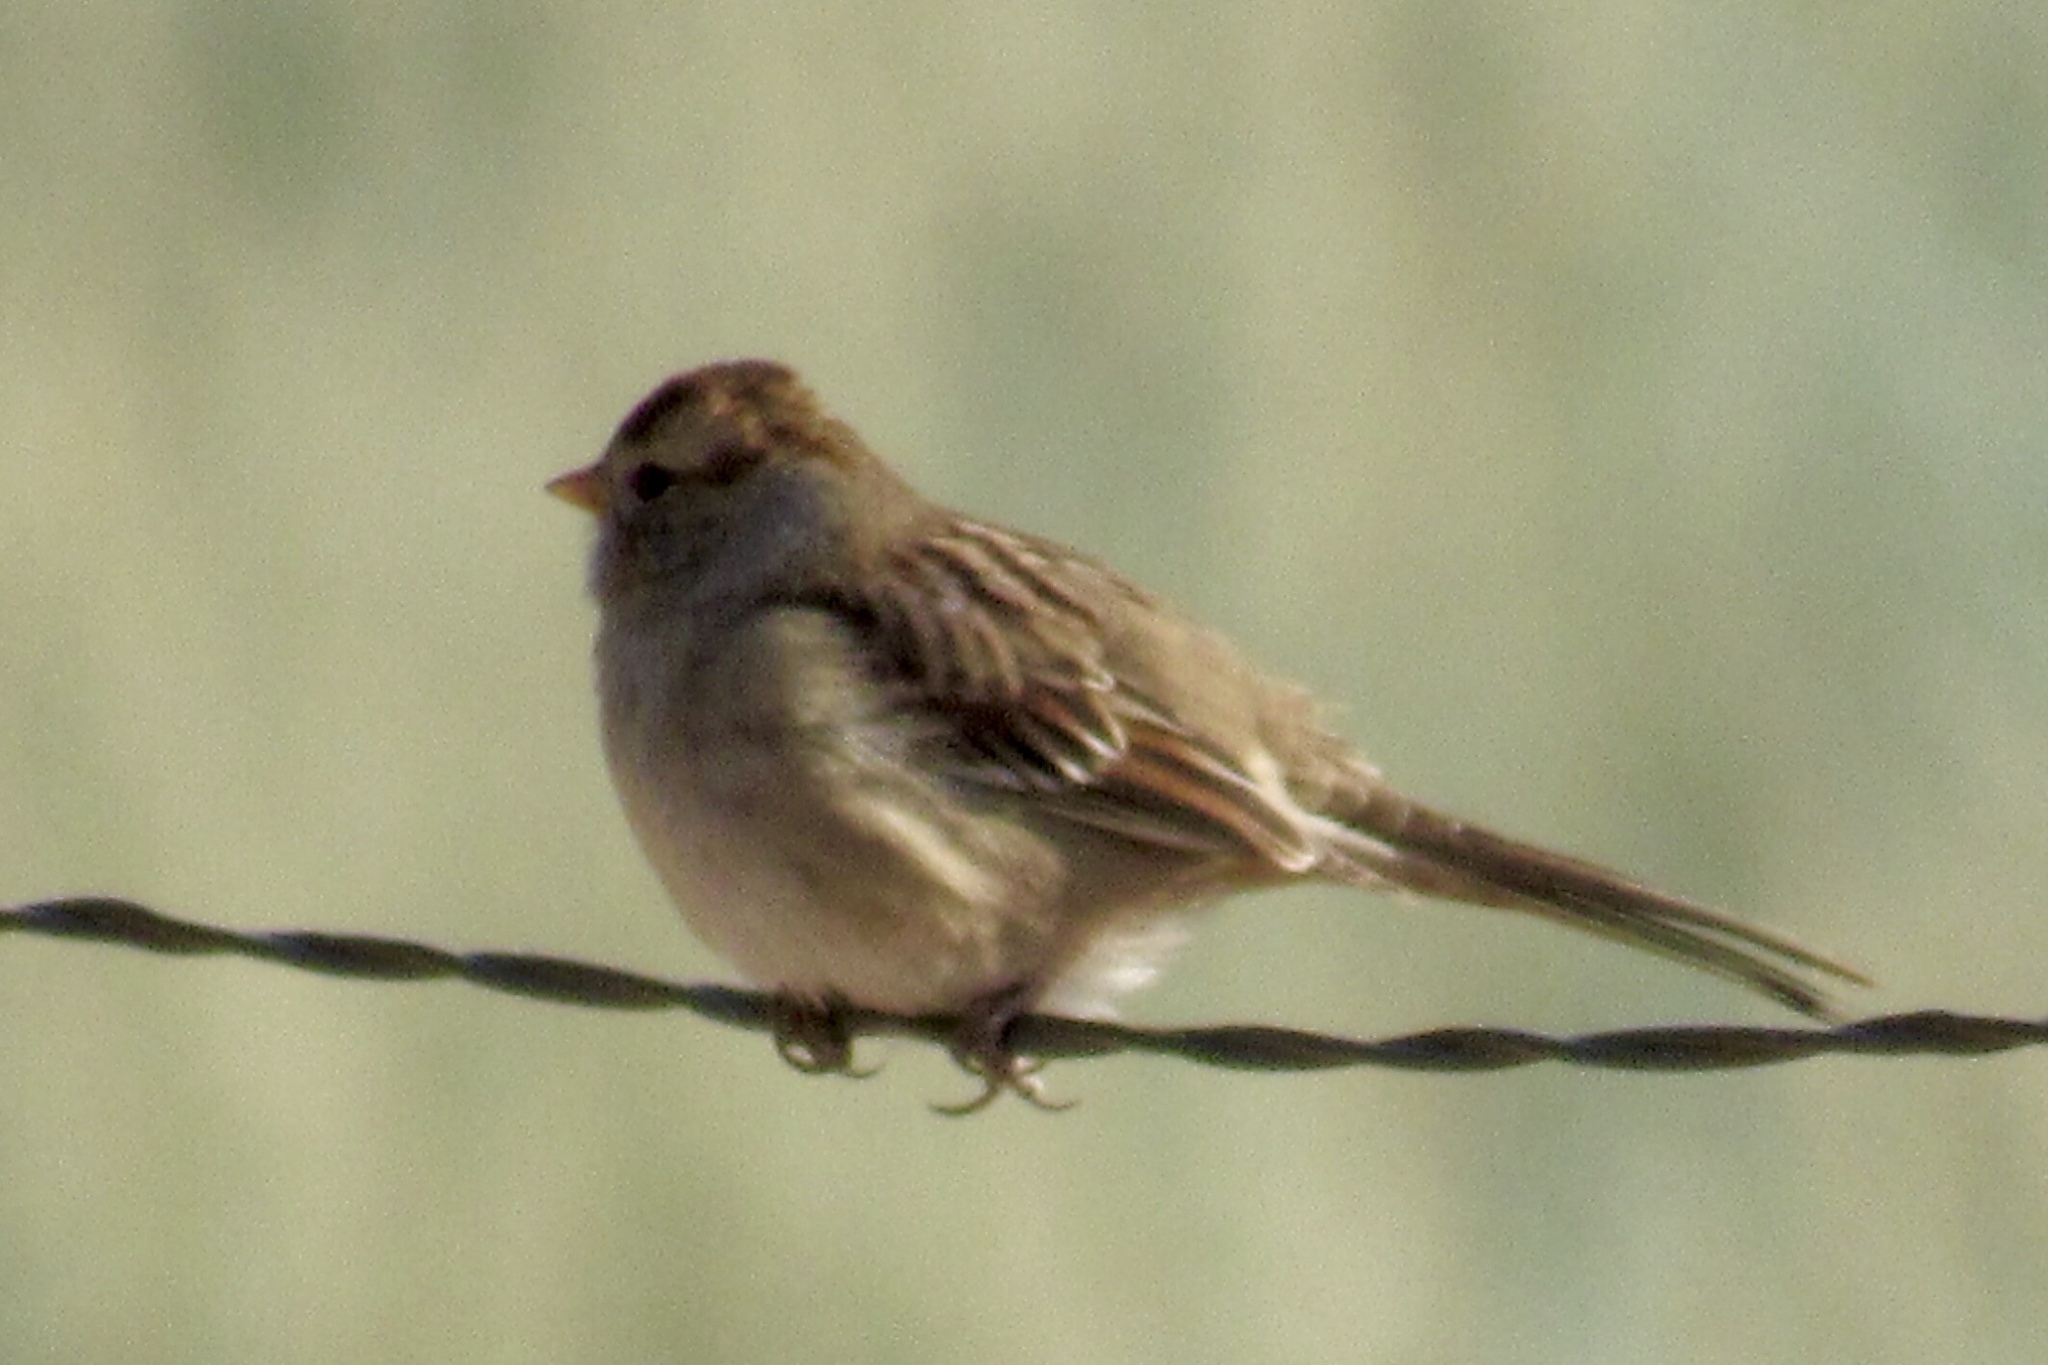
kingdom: Animalia
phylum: Chordata
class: Aves
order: Passeriformes
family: Passerellidae
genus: Zonotrichia
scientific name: Zonotrichia leucophrys
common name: White-crowned sparrow
